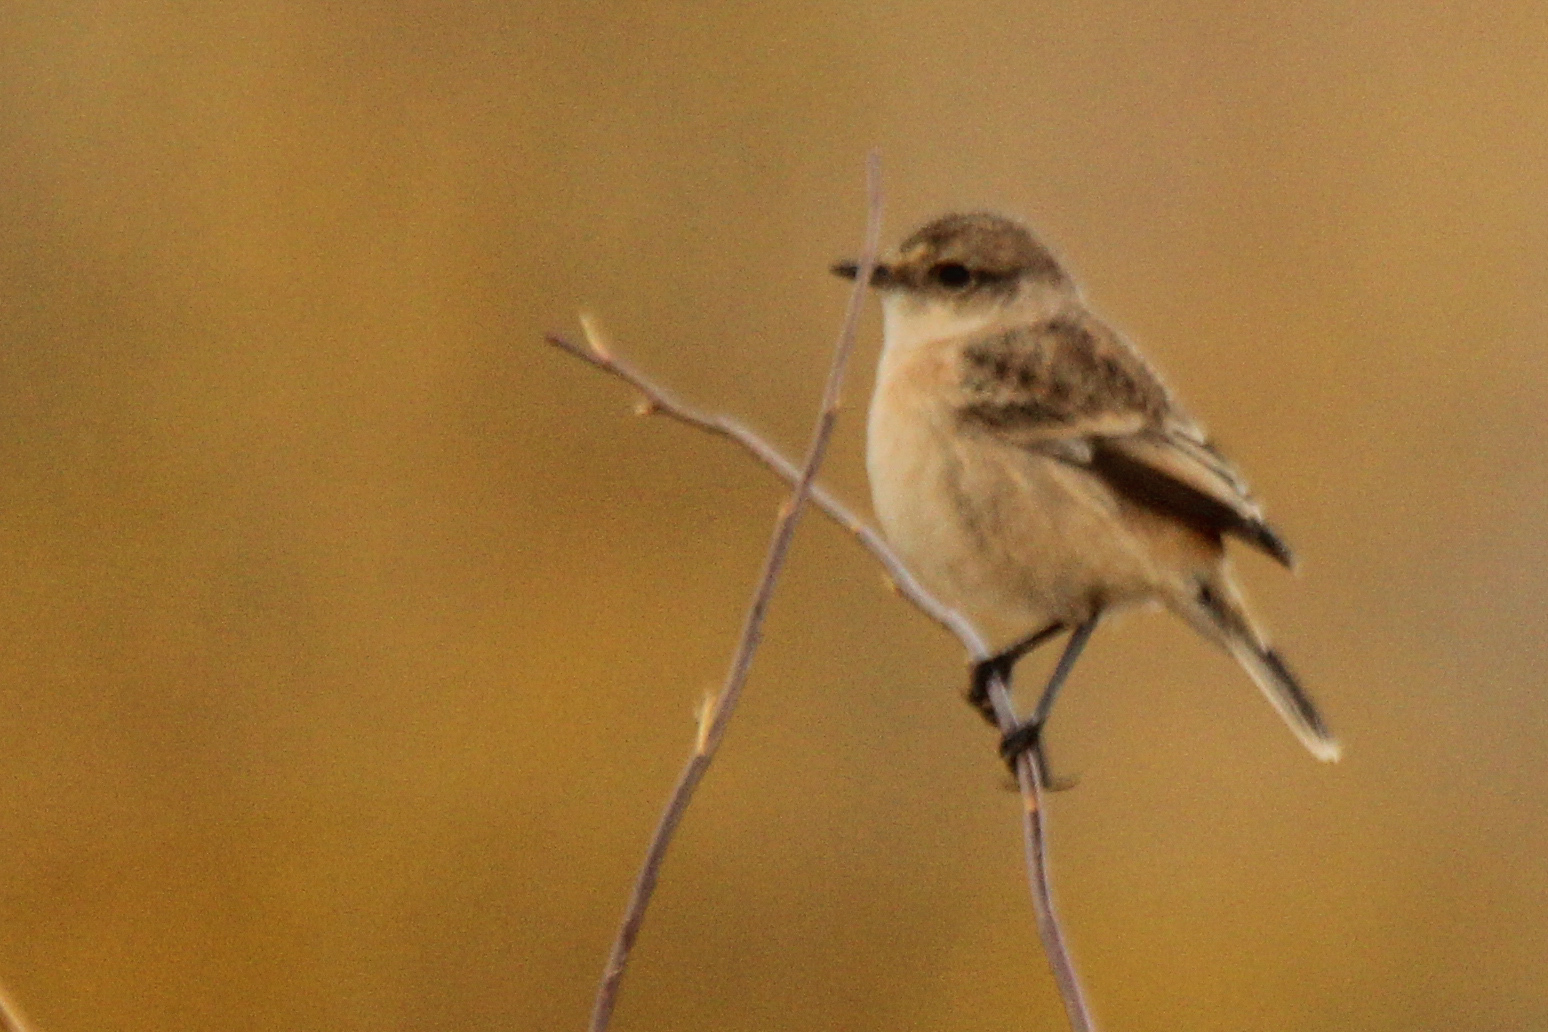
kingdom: Animalia
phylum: Chordata
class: Aves
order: Passeriformes
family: Muscicapidae
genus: Saxicola
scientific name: Saxicola maurus
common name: Siberian stonechat
